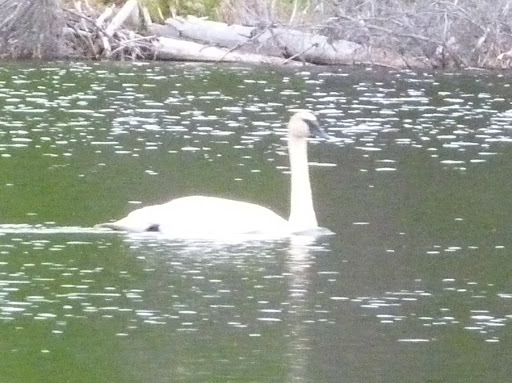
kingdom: Animalia
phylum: Chordata
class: Aves
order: Anseriformes
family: Anatidae
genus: Cygnus
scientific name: Cygnus buccinator
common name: Trumpeter swan
